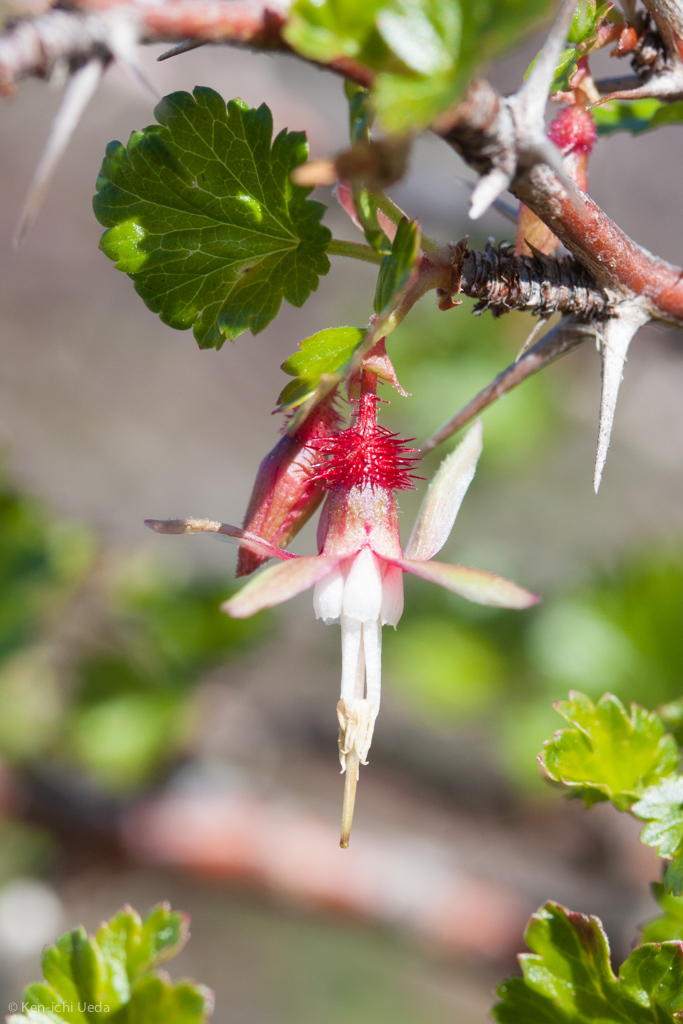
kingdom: Plantae
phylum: Tracheophyta
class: Magnoliopsida
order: Saxifragales
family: Grossulariaceae
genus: Ribes
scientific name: Ribes californicum
